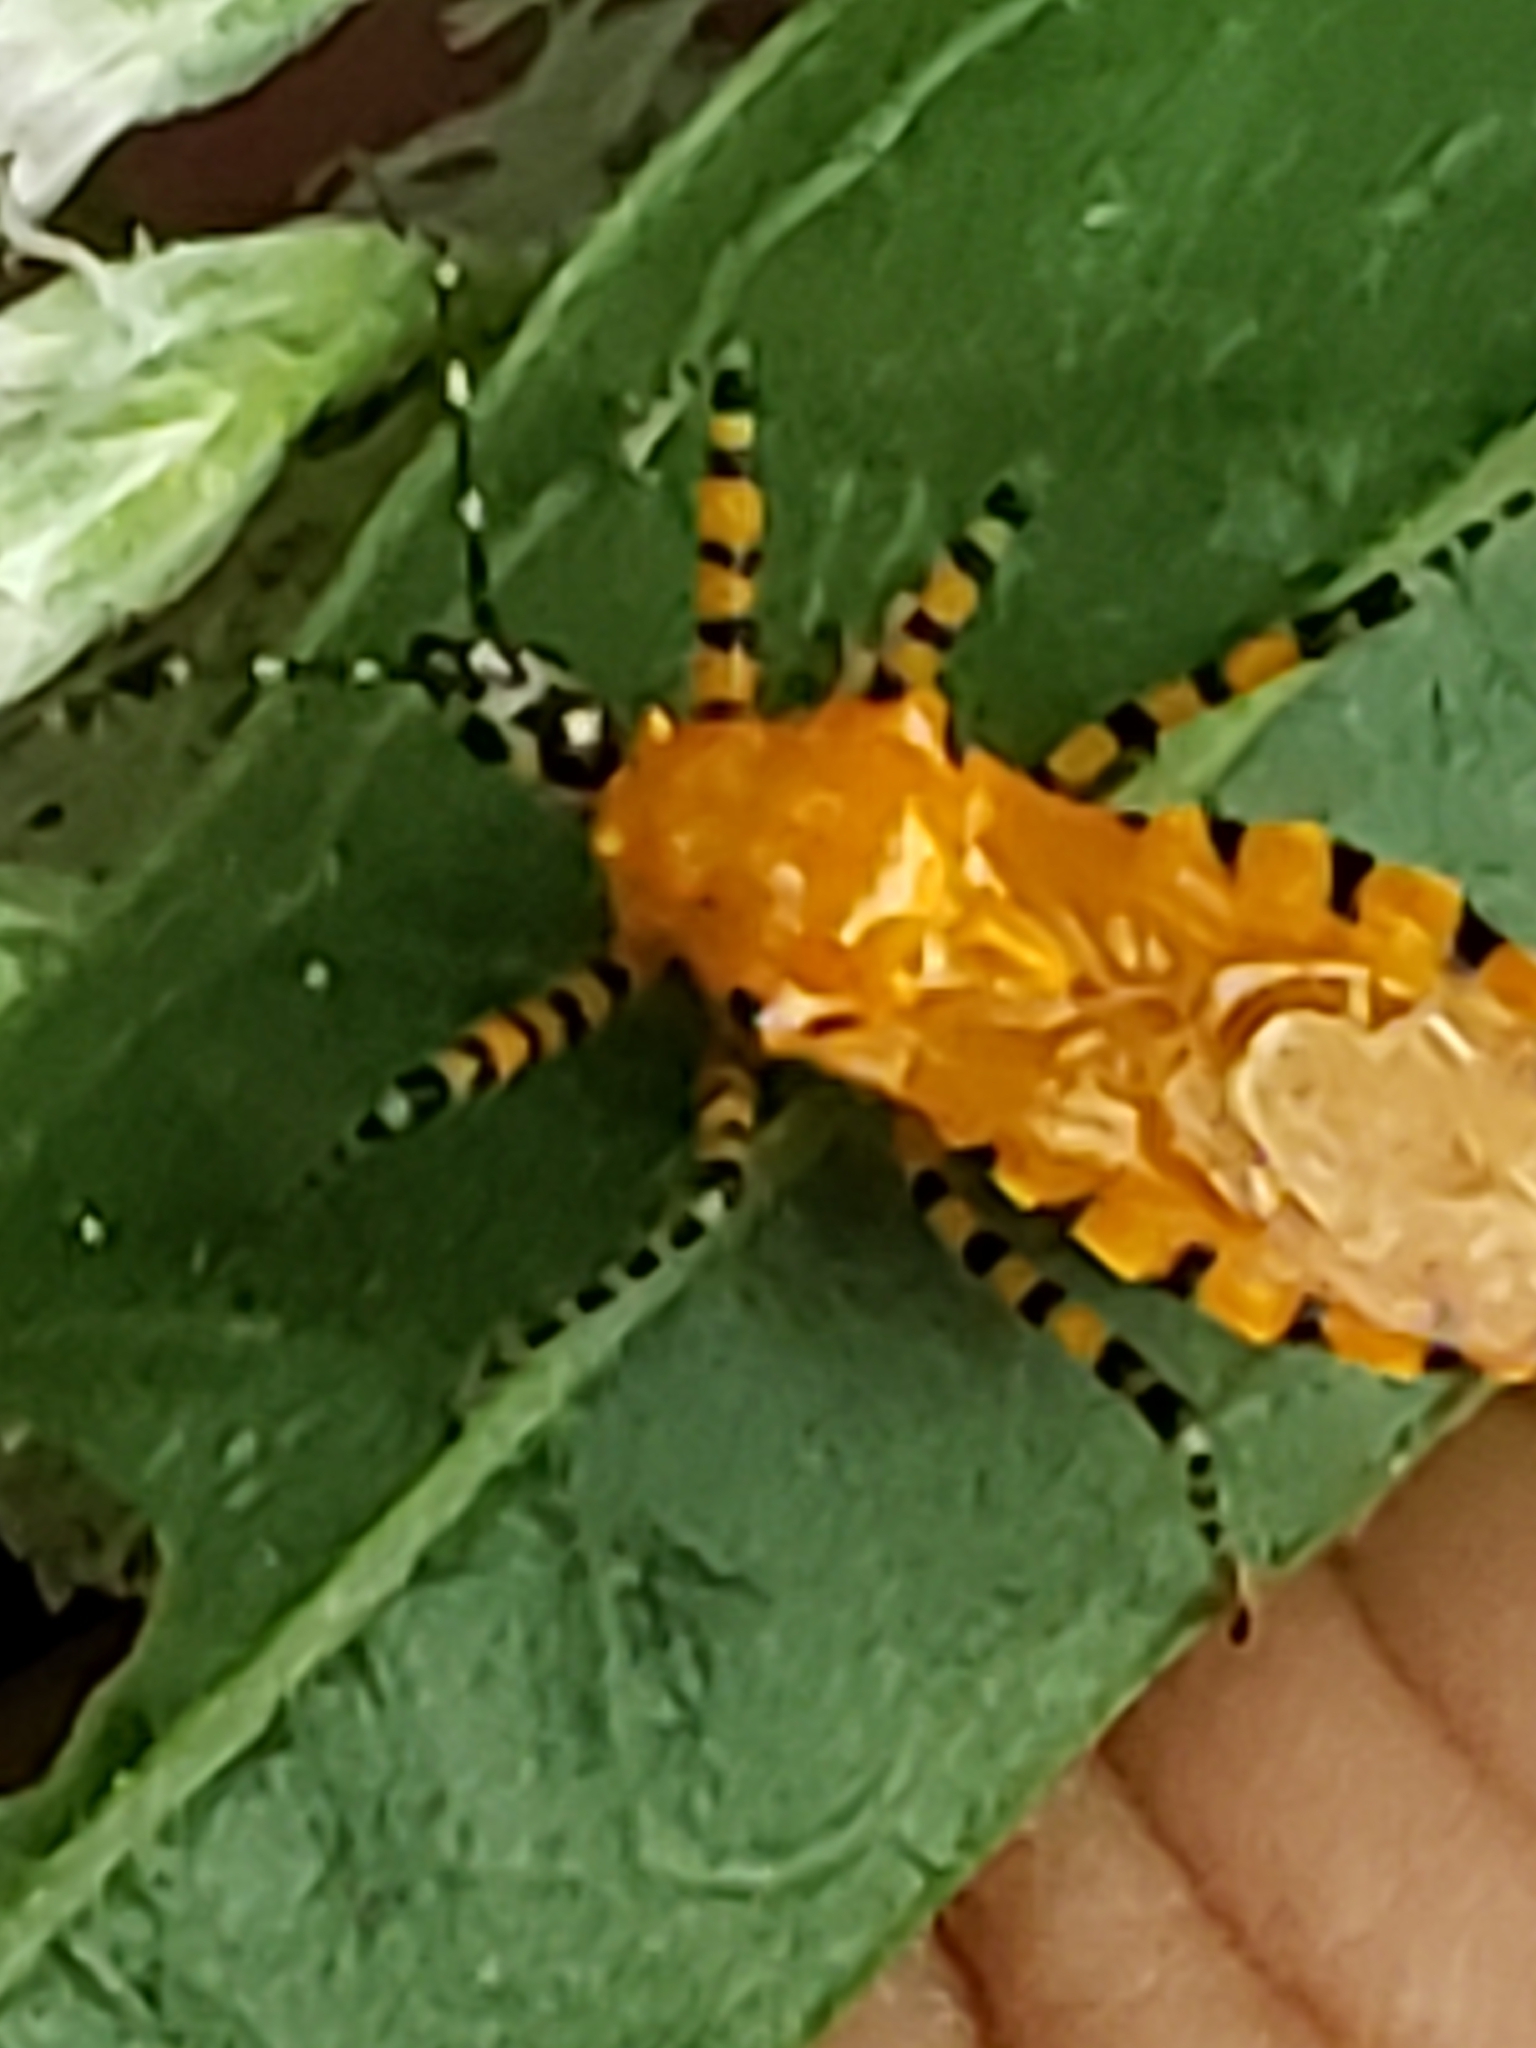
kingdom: Animalia
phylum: Arthropoda
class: Insecta
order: Hemiptera
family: Reduviidae
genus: Pselliopus
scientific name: Pselliopus barberi
